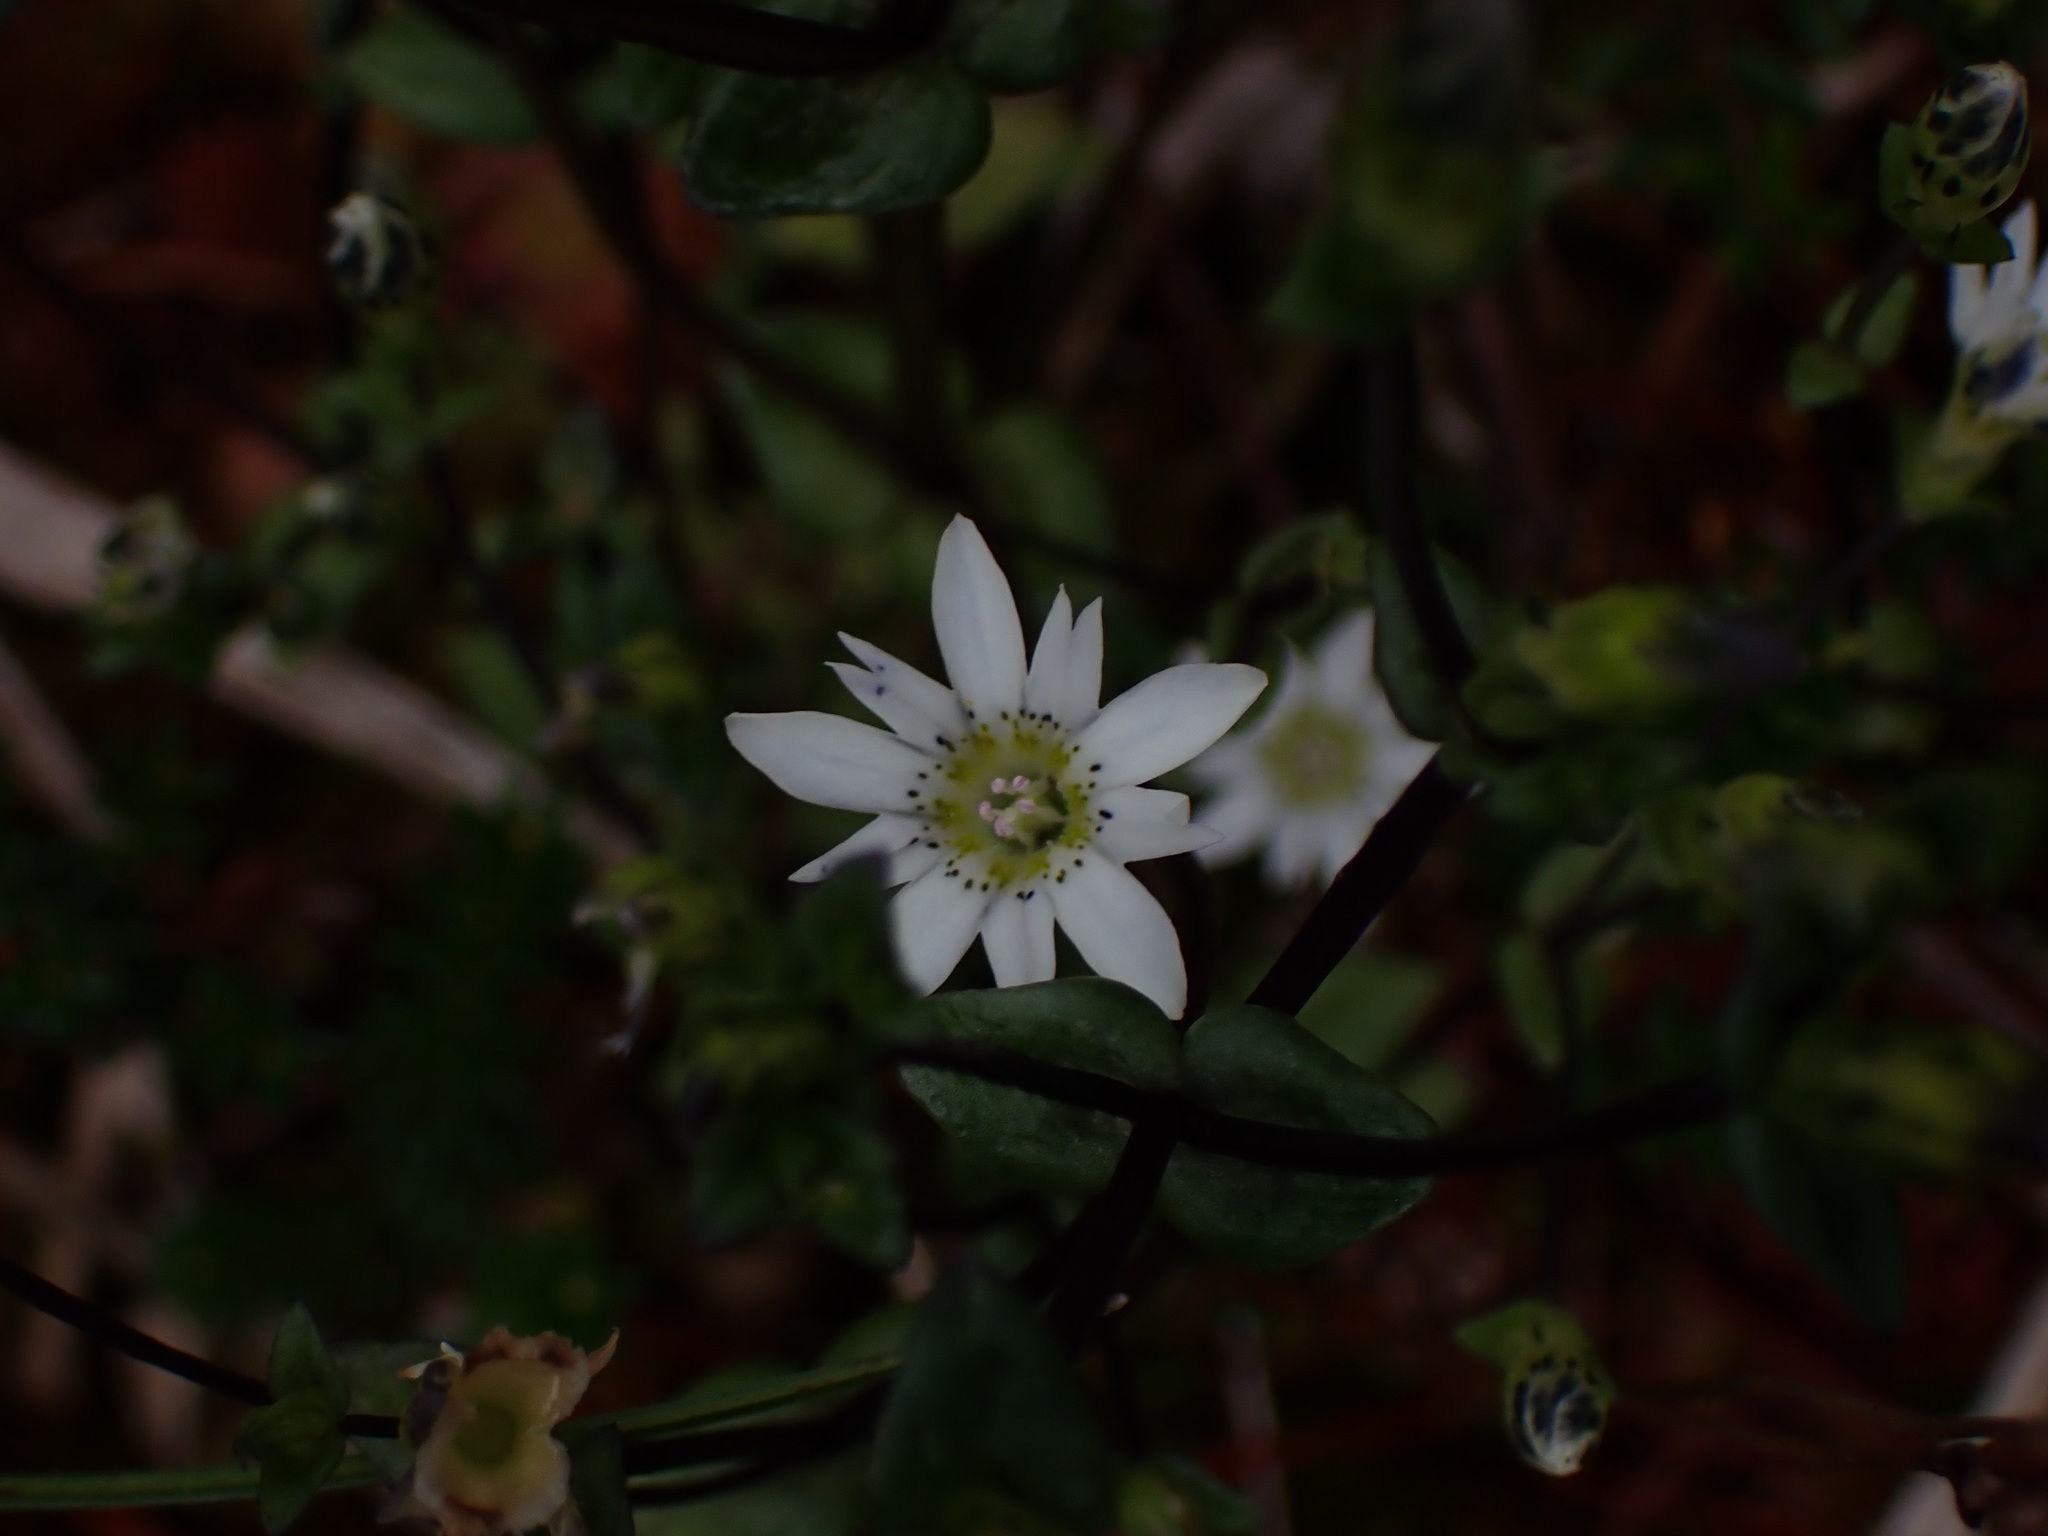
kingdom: Plantae
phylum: Tracheophyta
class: Magnoliopsida
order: Gentianales
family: Gentianaceae
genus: Gentiana
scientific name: Gentiana douglasiana
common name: Swamp gentian
